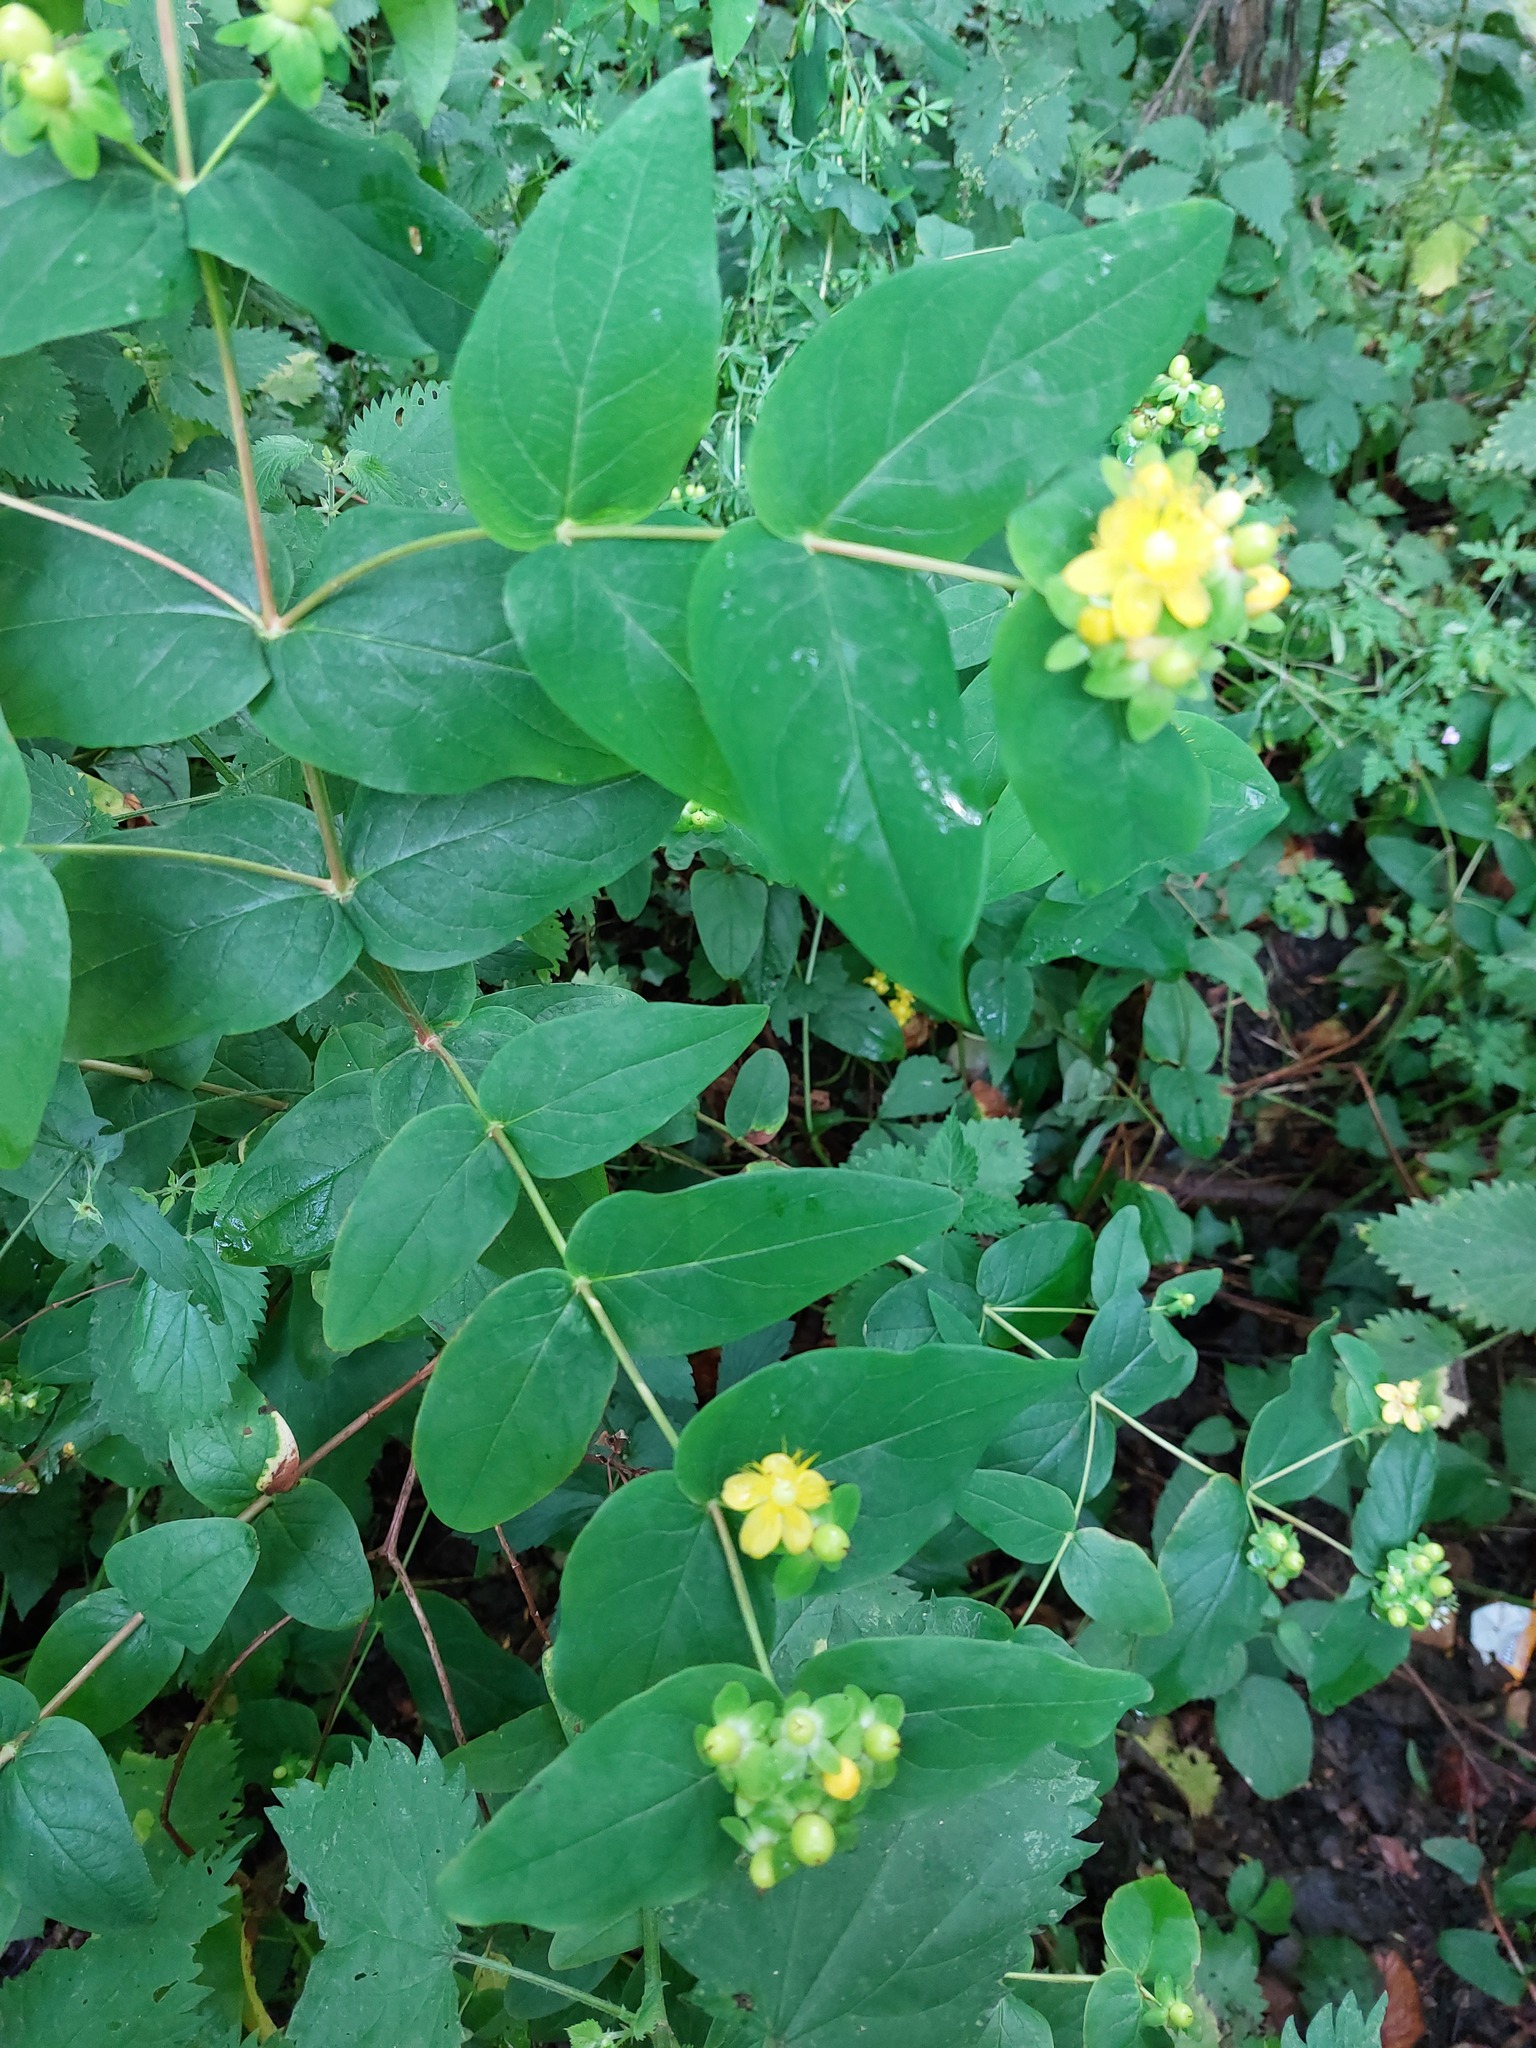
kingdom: Plantae
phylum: Tracheophyta
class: Magnoliopsida
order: Malpighiales
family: Hypericaceae
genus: Hypericum
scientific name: Hypericum androsaemum
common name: Sweet-amber
